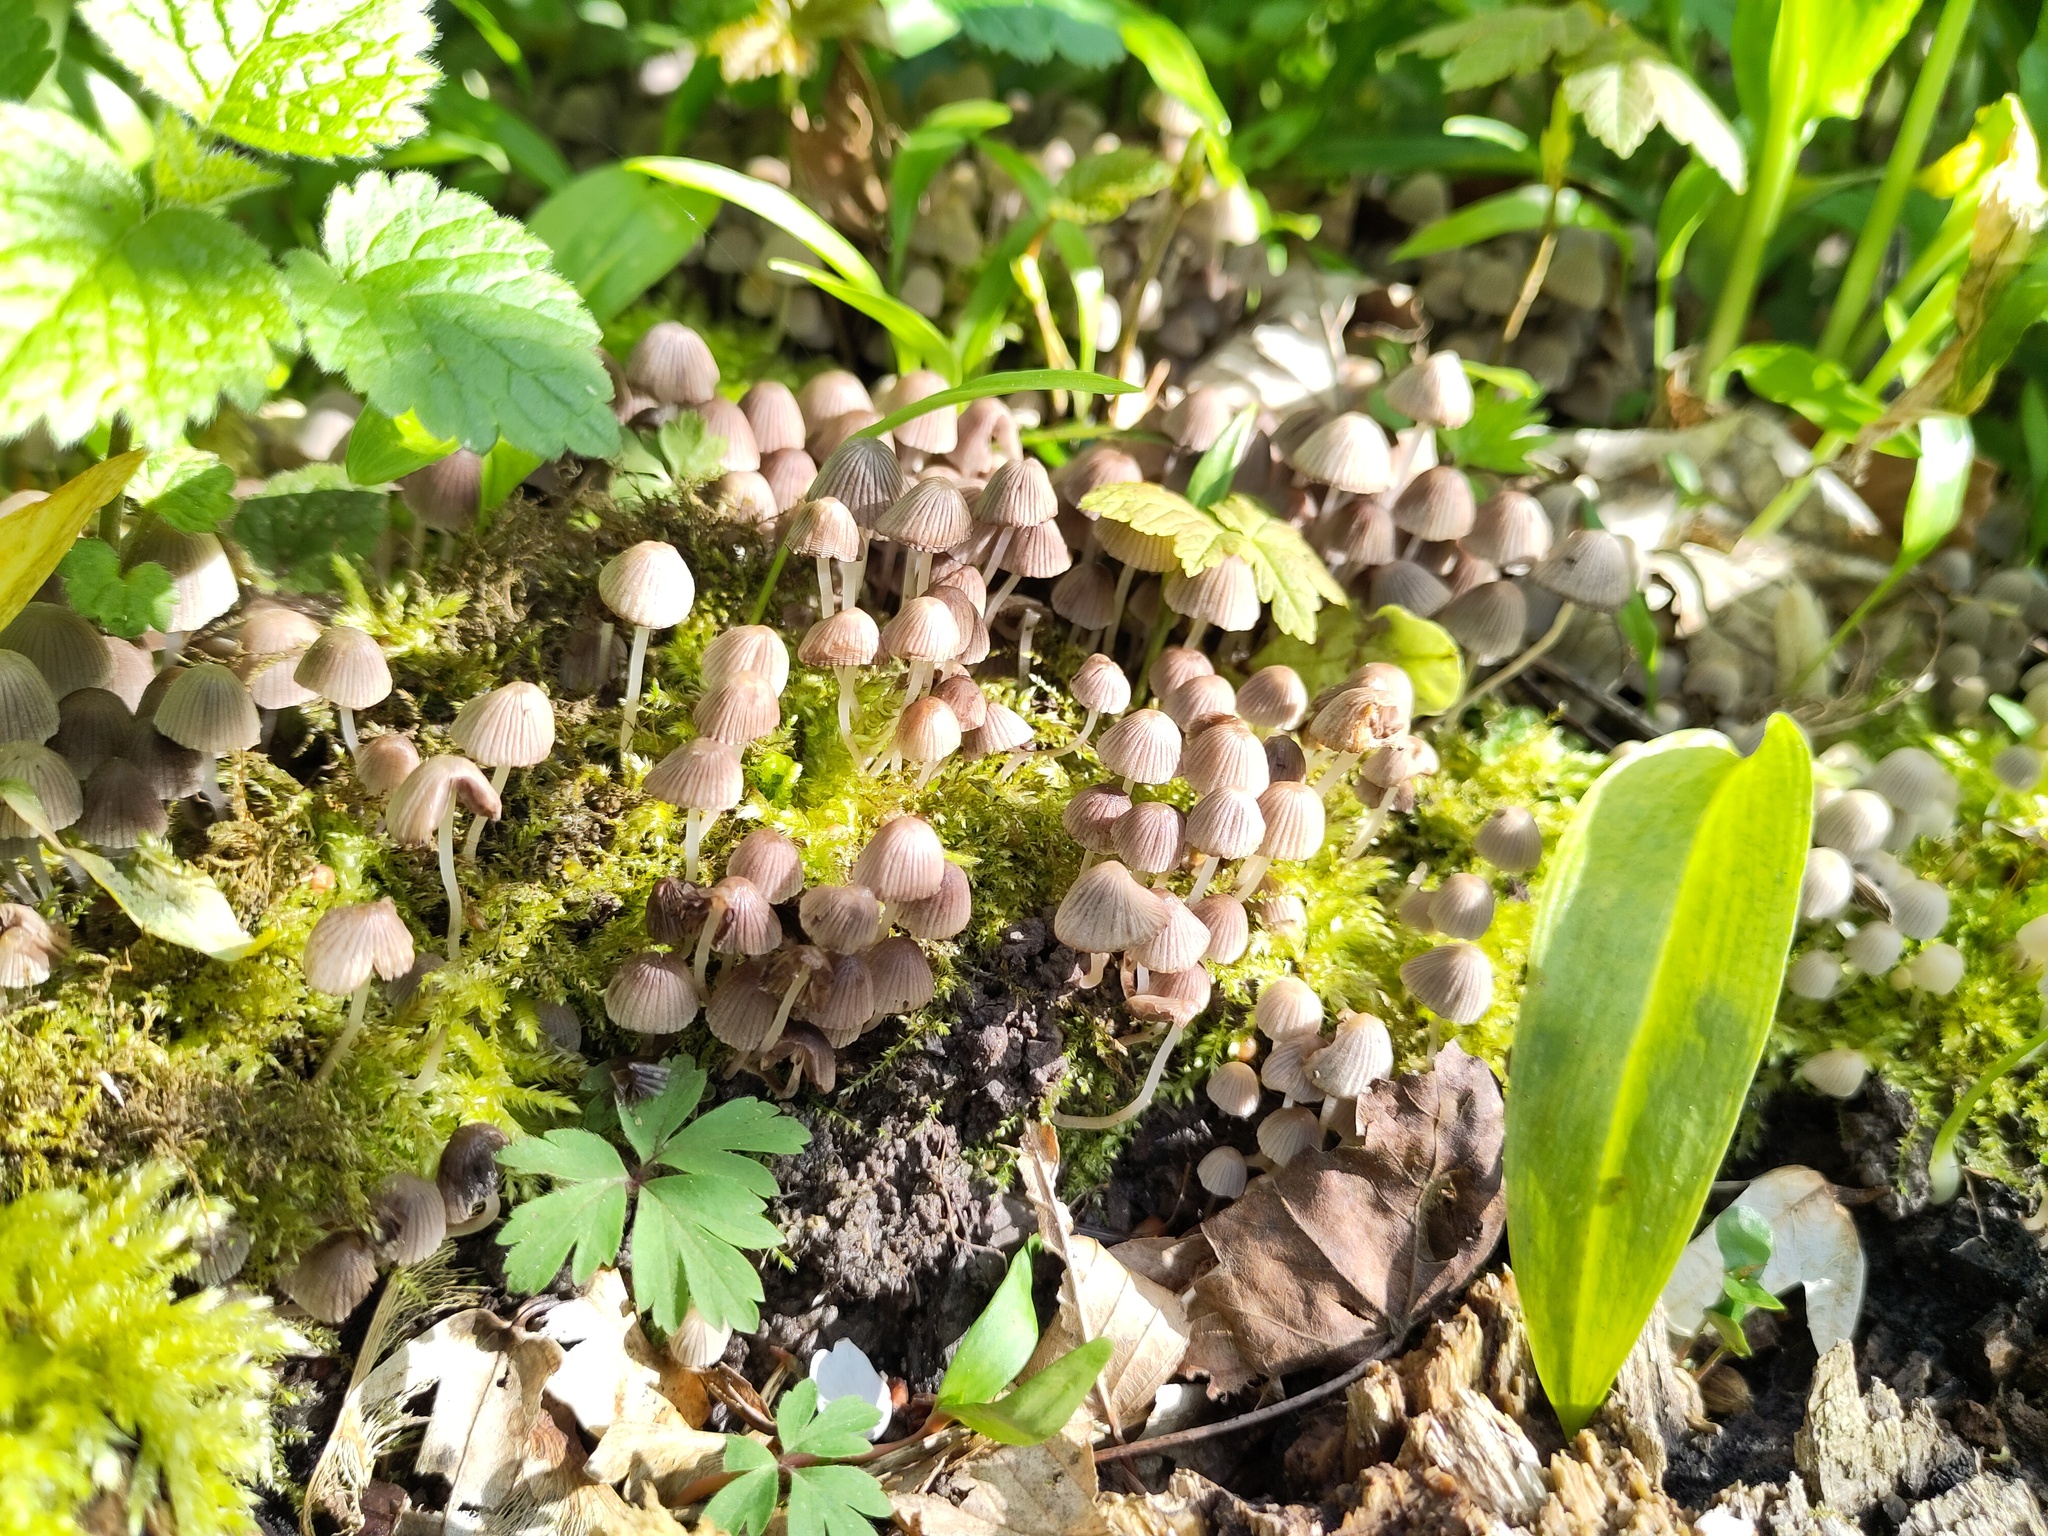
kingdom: Fungi
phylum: Basidiomycota
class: Agaricomycetes
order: Agaricales
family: Psathyrellaceae
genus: Coprinellus
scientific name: Coprinellus disseminatus
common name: Fairies' bonnets
